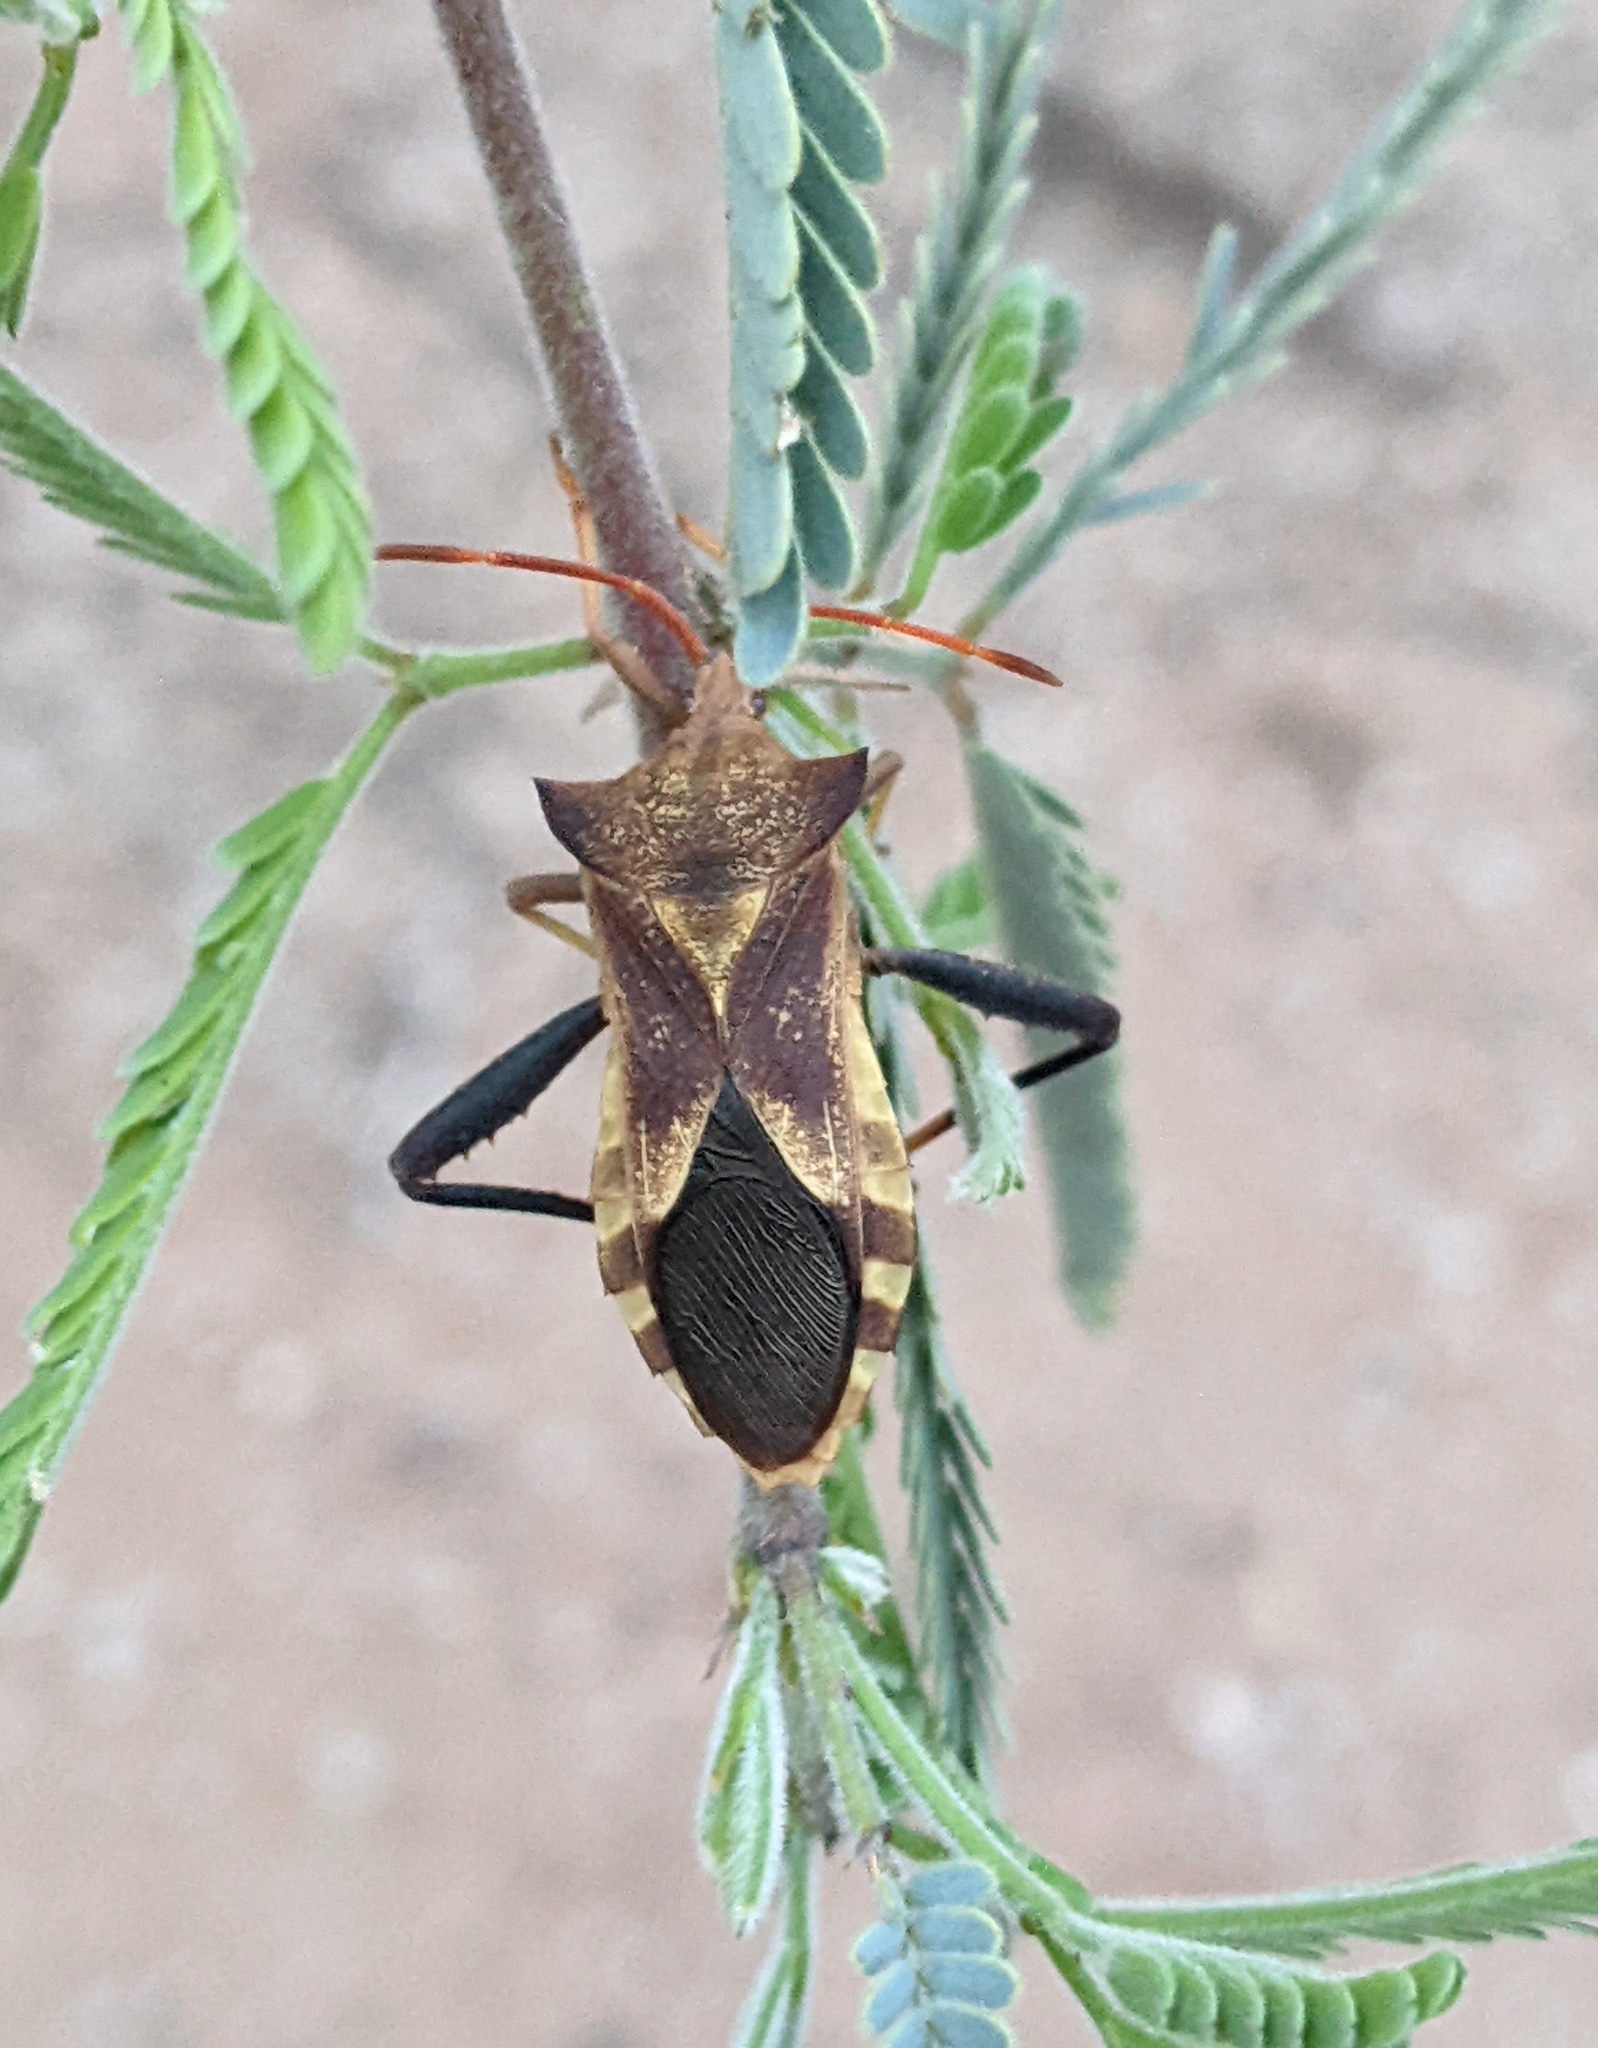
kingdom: Animalia
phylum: Arthropoda
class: Insecta
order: Hemiptera
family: Coreidae
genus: Mozena
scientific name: Mozena arizonensis
